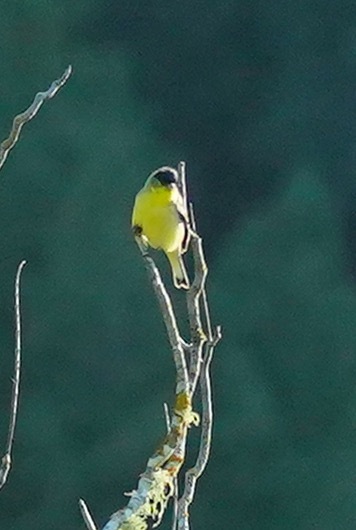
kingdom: Animalia
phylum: Chordata
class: Aves
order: Passeriformes
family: Fringillidae
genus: Spinus
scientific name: Spinus psaltria
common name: Lesser goldfinch
